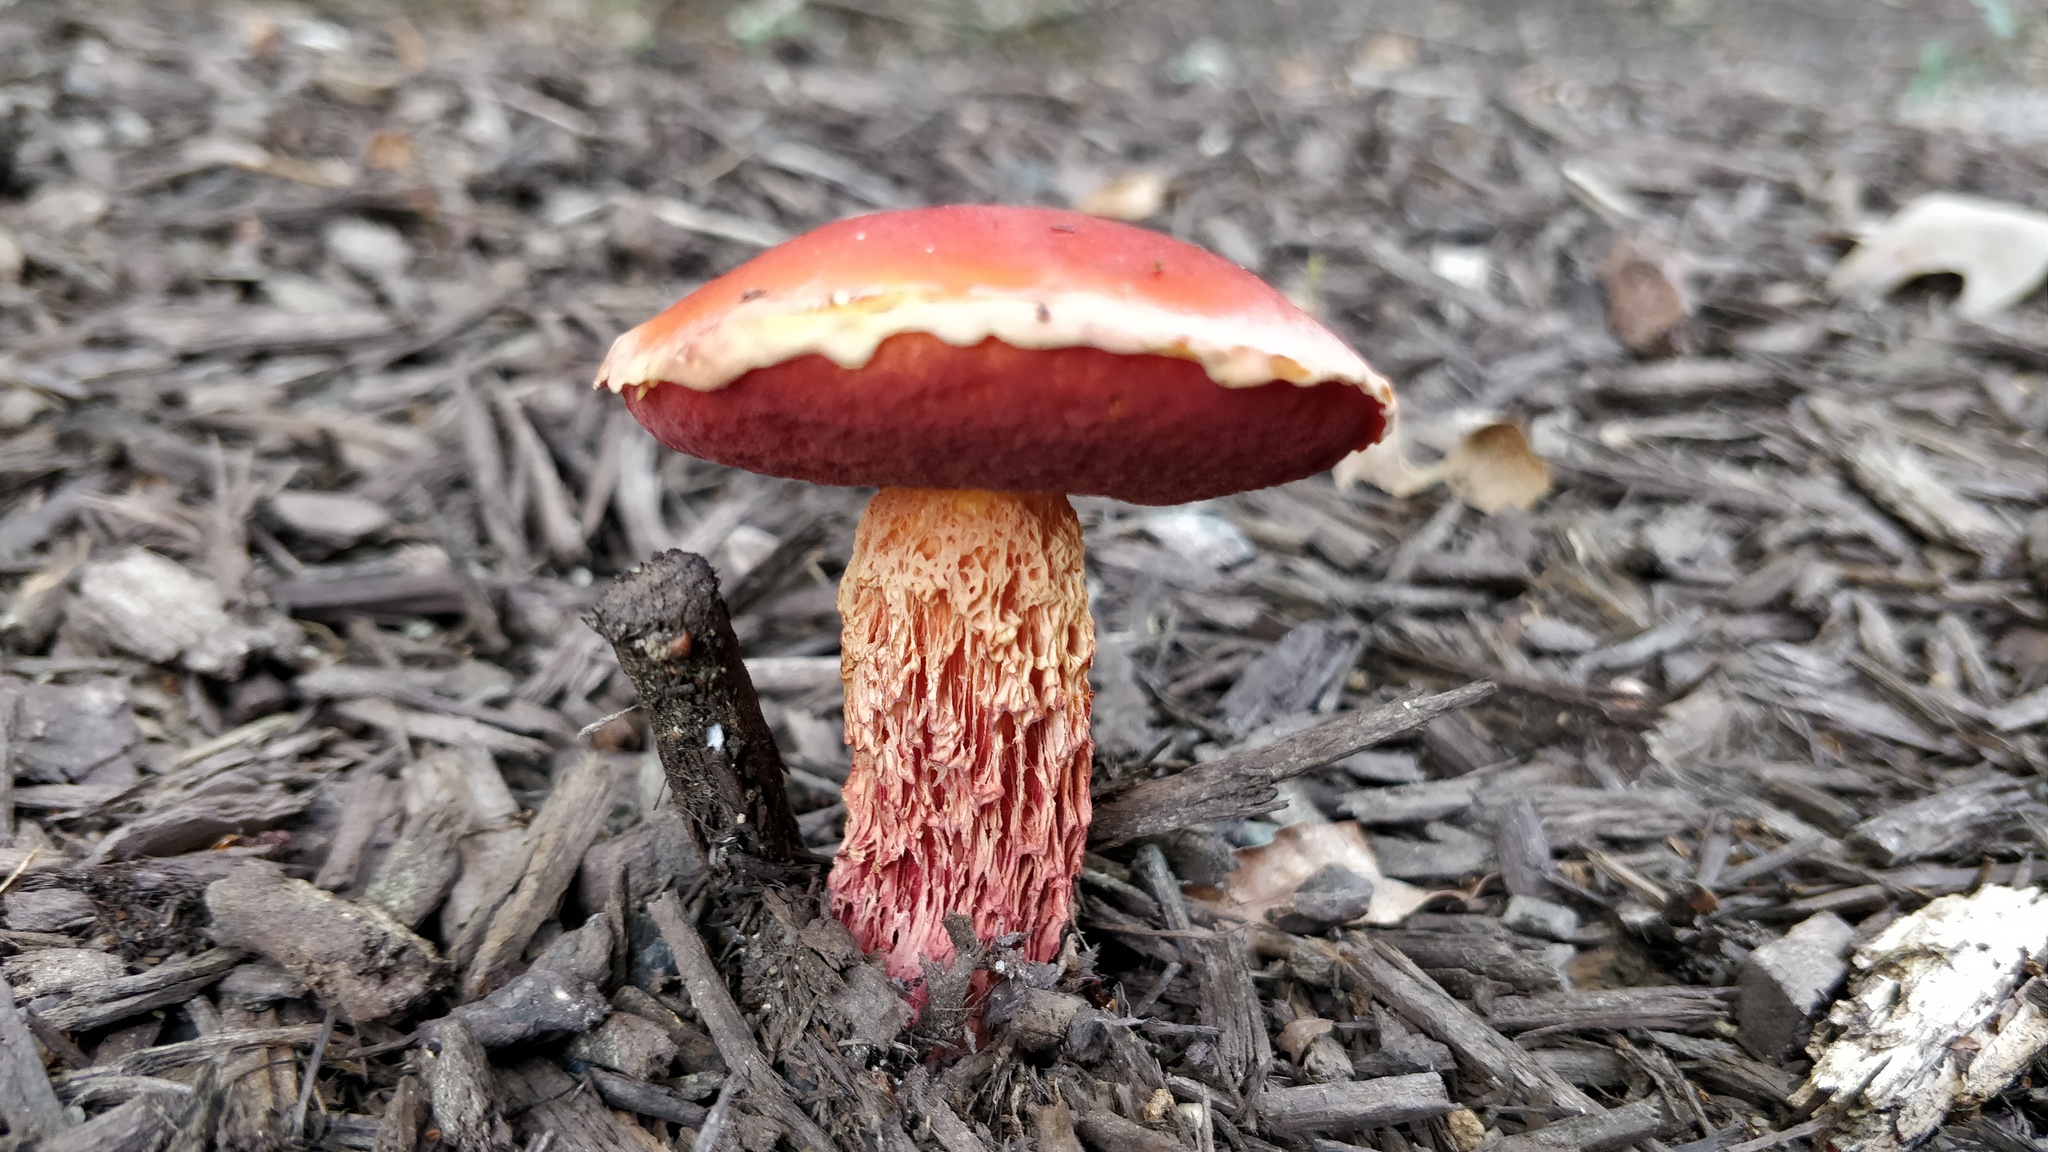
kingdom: Fungi
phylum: Basidiomycota
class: Agaricomycetes
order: Boletales
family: Boletaceae
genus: Butyriboletus
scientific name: Butyriboletus frostii
